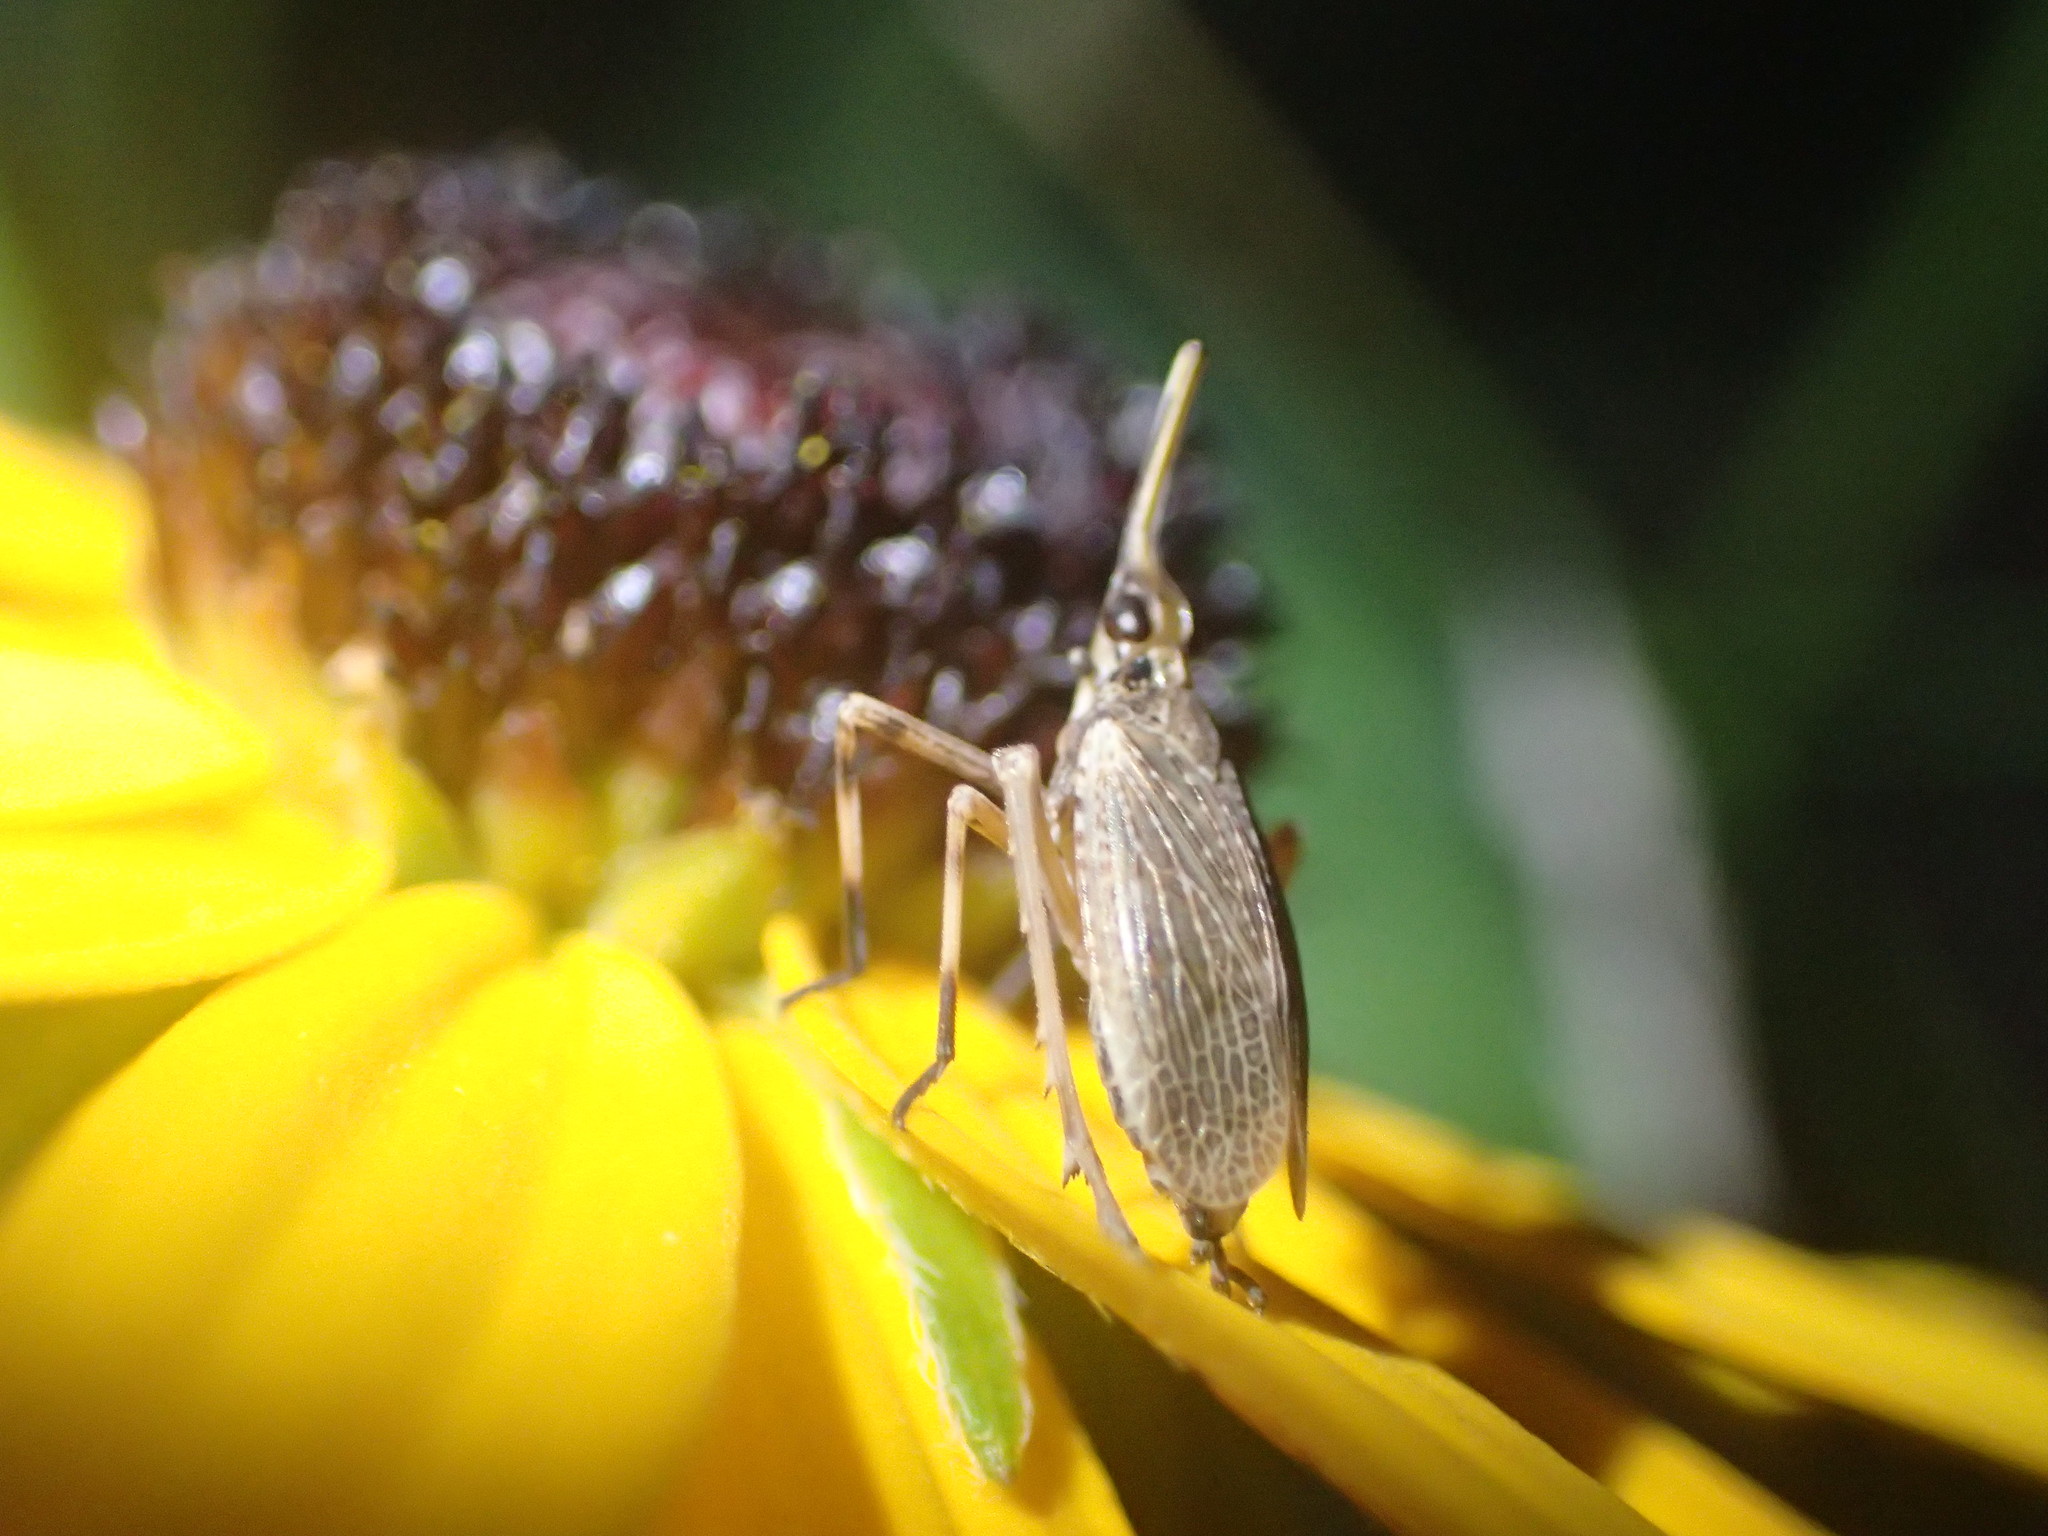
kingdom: Animalia
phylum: Arthropoda
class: Insecta
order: Hemiptera
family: Dictyopharidae
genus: Scolops
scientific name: Scolops sulcipes
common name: Partridge planthopper
